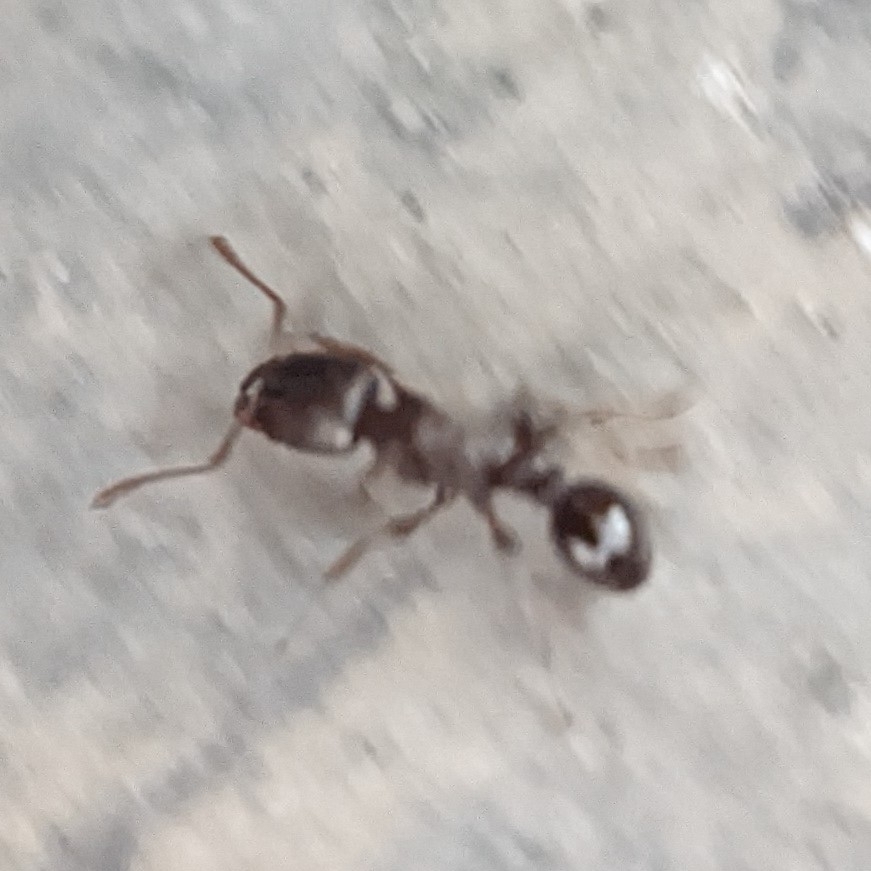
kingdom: Animalia
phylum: Arthropoda
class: Insecta
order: Hymenoptera
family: Formicidae
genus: Tetramorium
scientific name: Tetramorium immigrans
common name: Pavement ant
